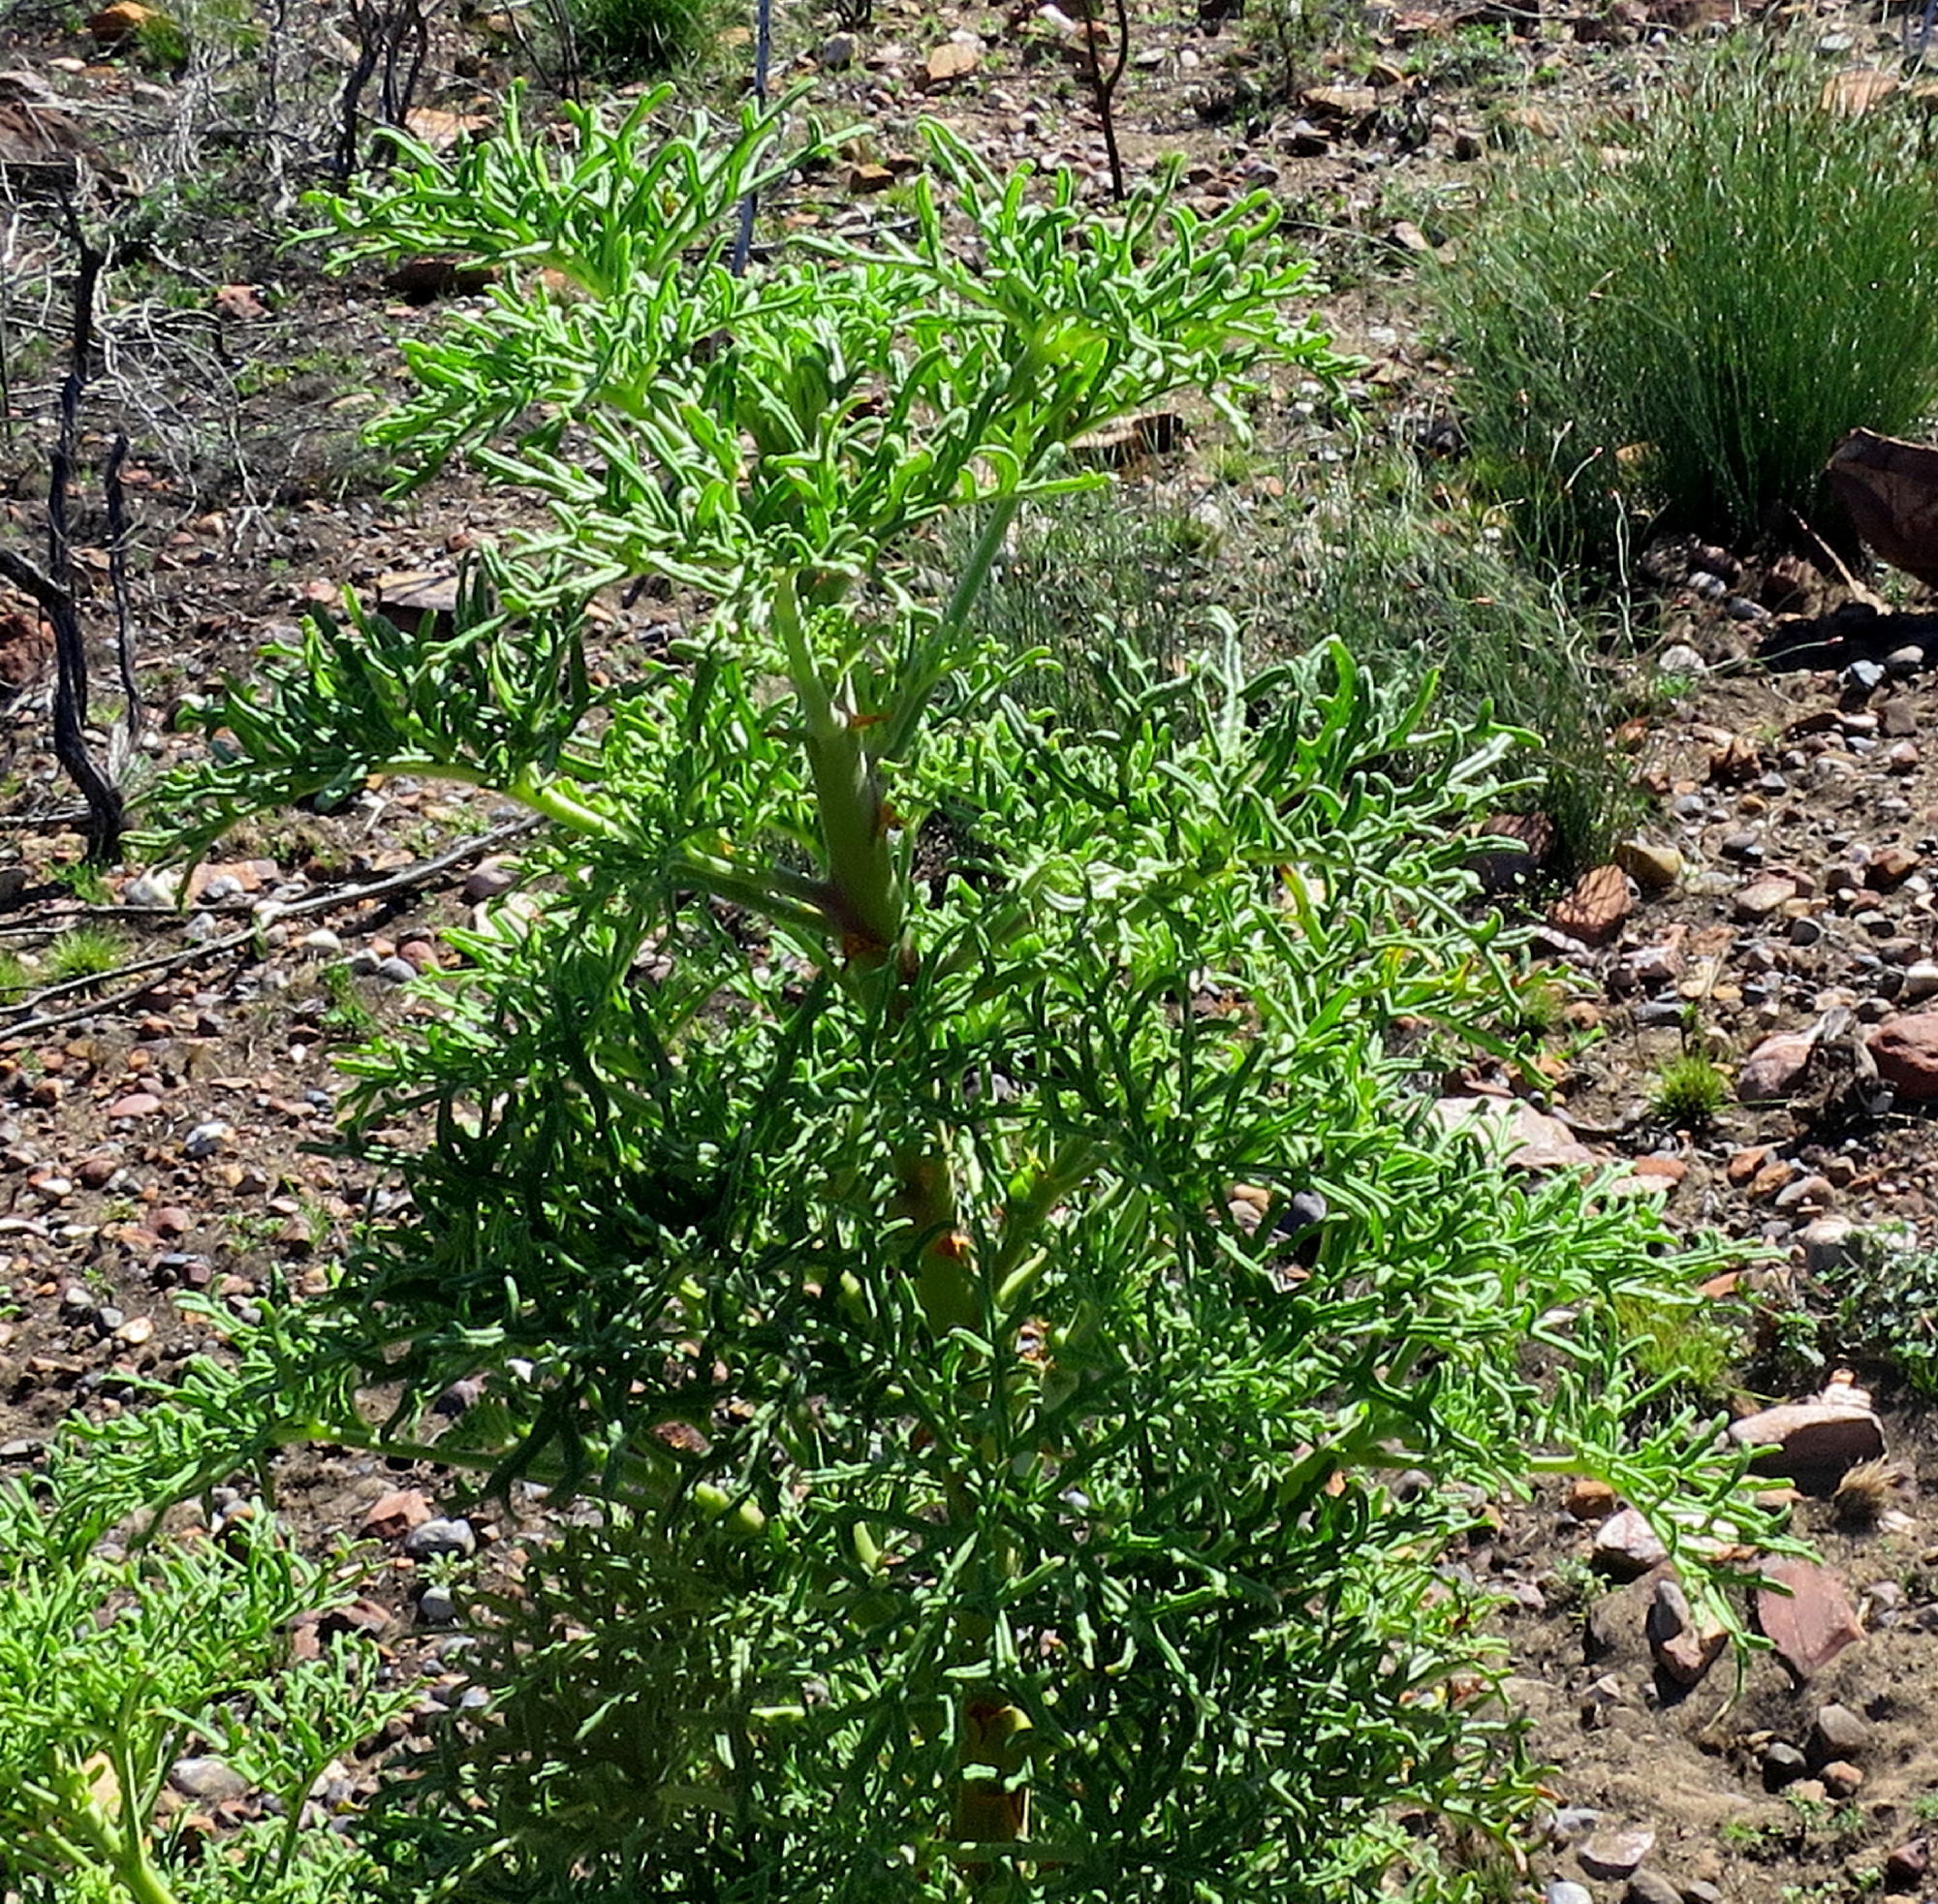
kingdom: Plantae
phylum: Tracheophyta
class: Magnoliopsida
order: Geraniales
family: Geraniaceae
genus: Pelargonium
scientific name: Pelargonium radens
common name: Rasp-leaf pelargonium
